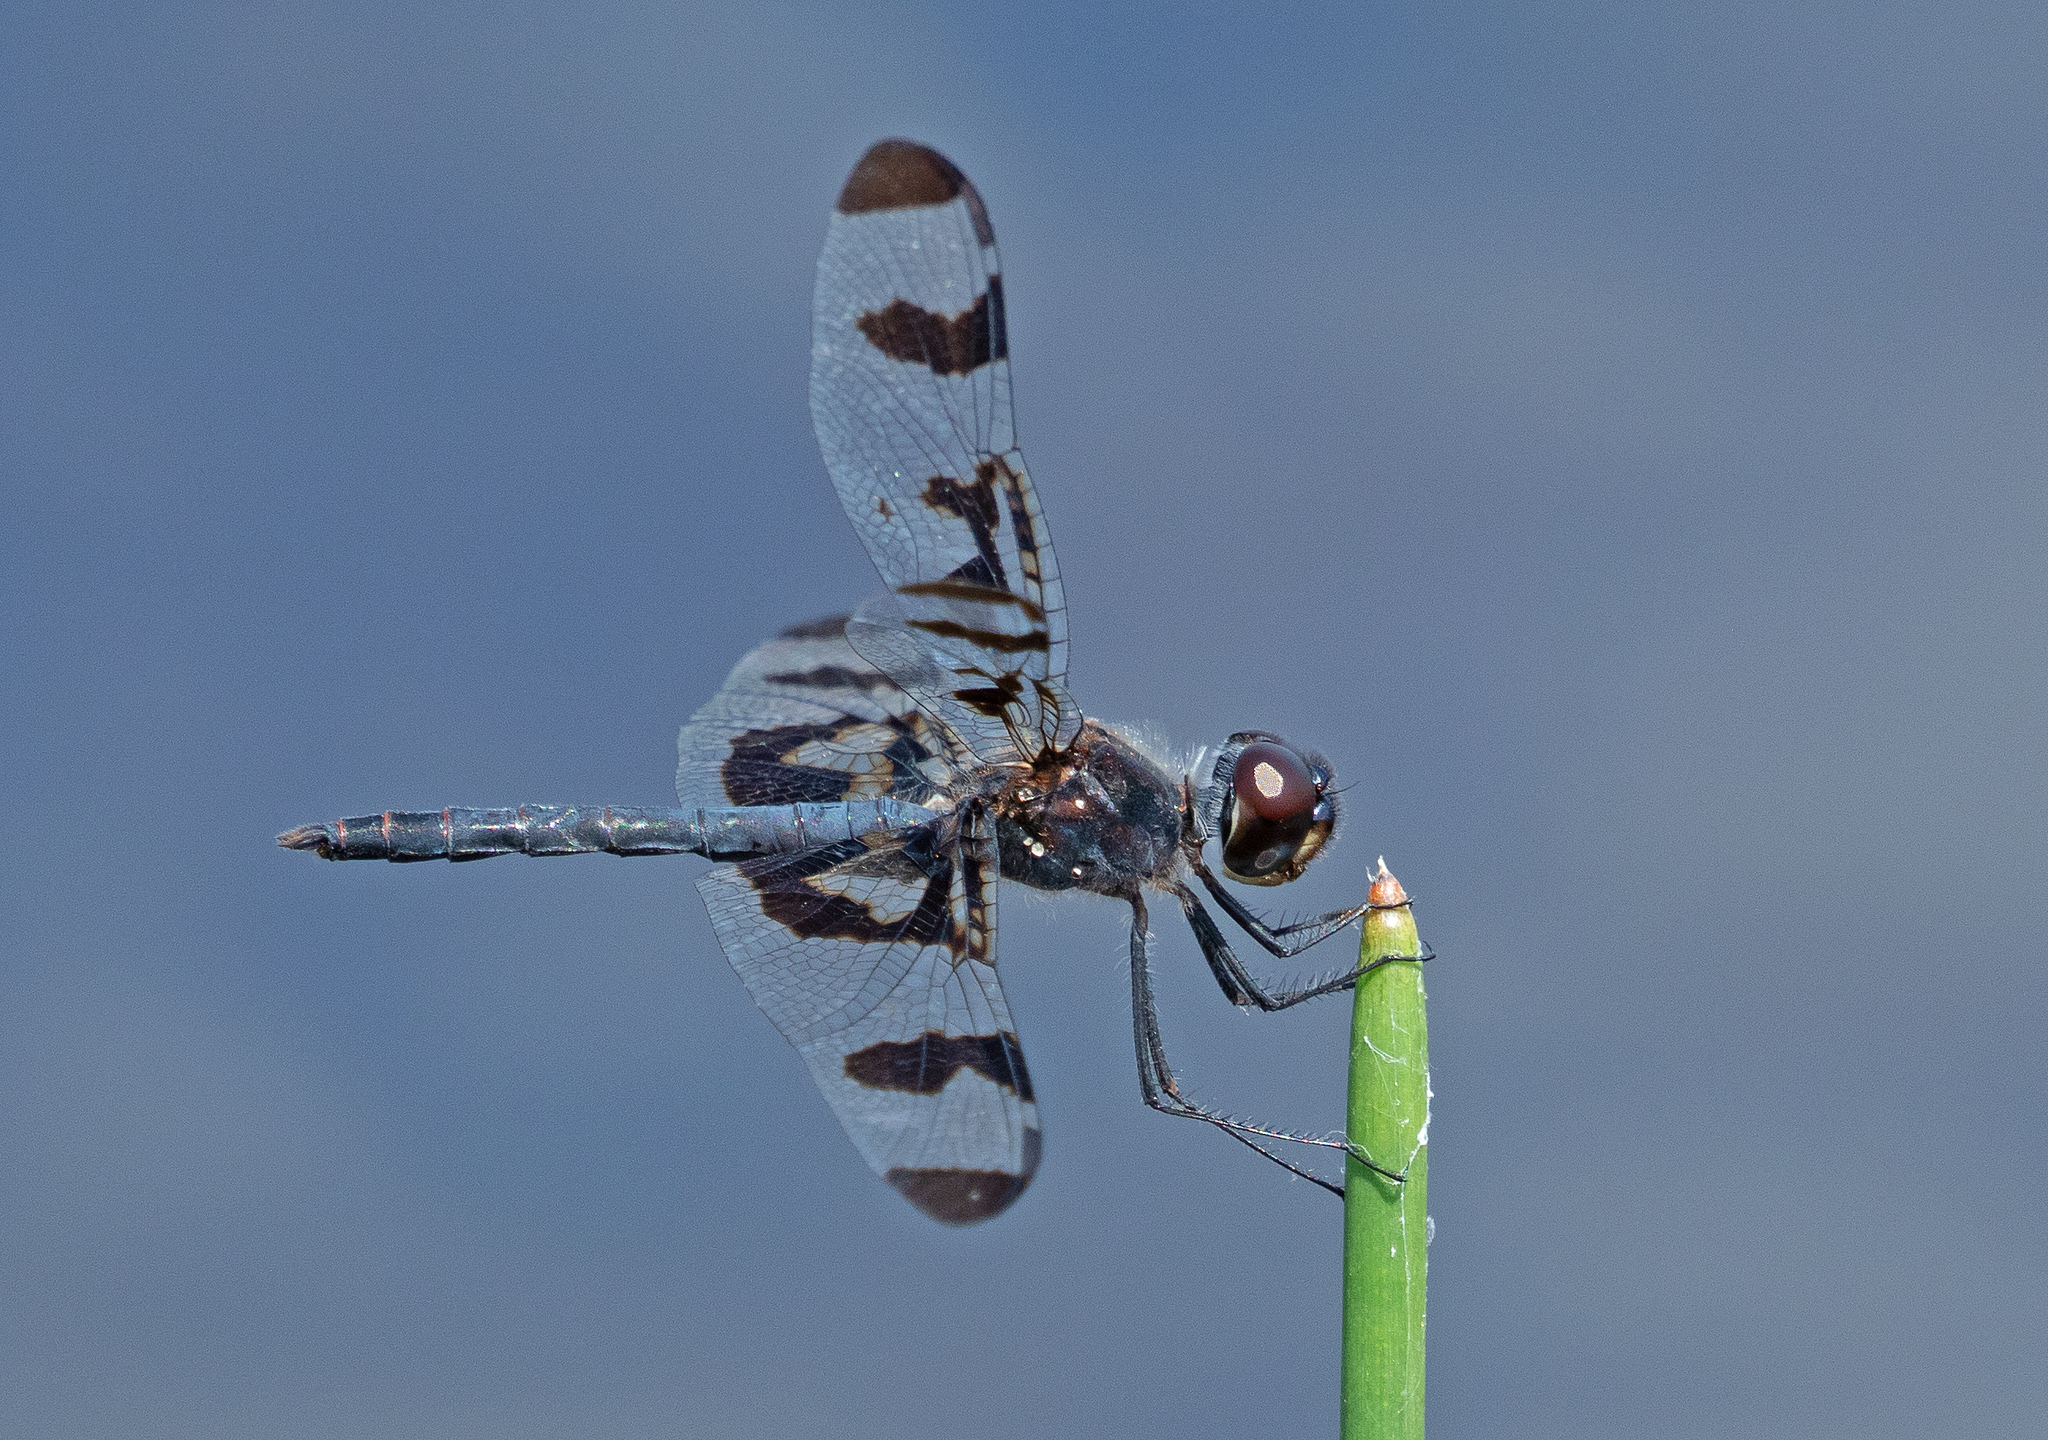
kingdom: Animalia
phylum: Arthropoda
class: Insecta
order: Odonata
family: Libellulidae
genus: Celithemis
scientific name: Celithemis fasciata
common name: Banded pennant
